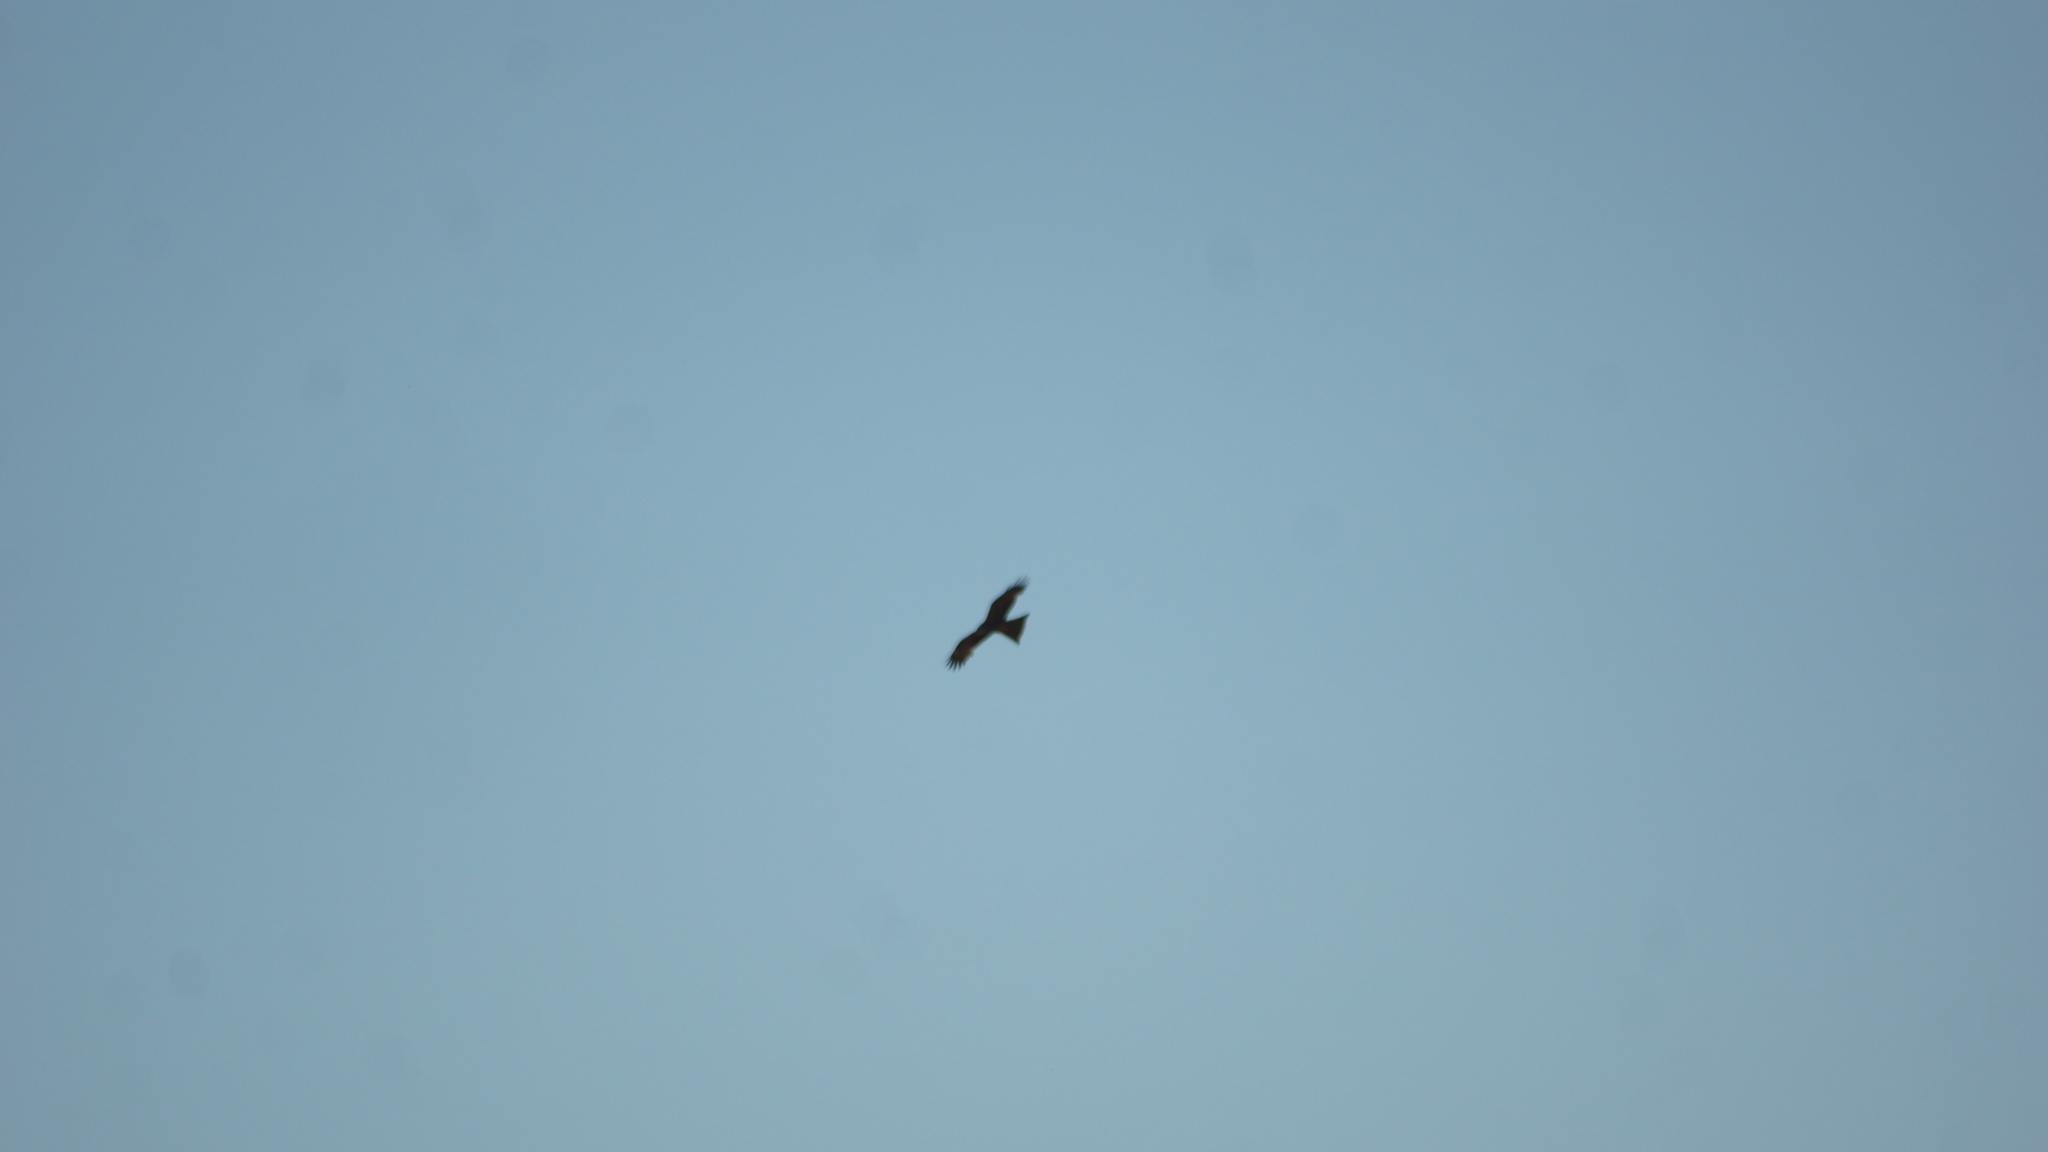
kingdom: Animalia
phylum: Chordata
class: Aves
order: Accipitriformes
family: Accipitridae
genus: Milvus
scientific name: Milvus migrans
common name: Black kite
